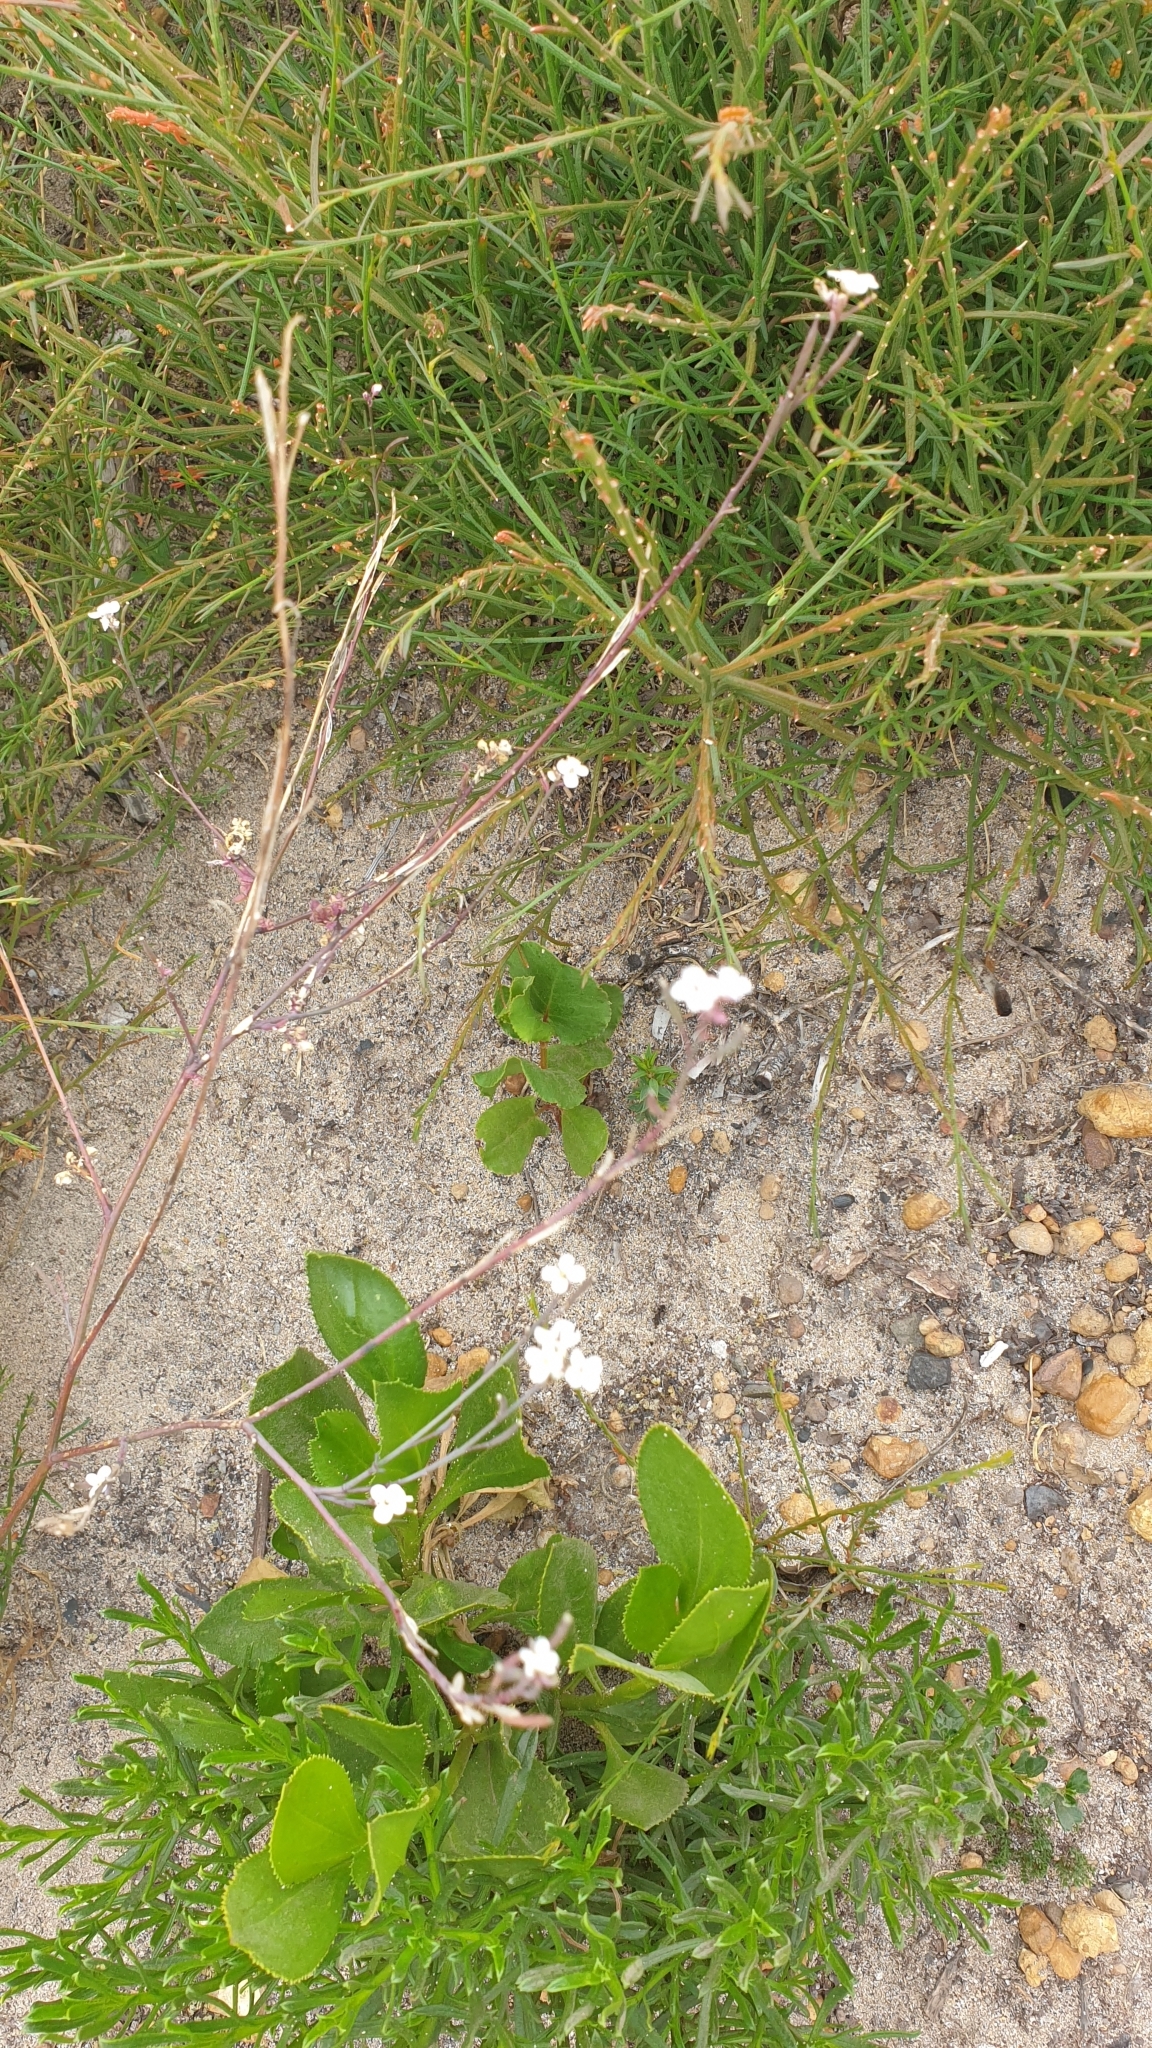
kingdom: Plantae
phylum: Tracheophyta
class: Magnoliopsida
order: Brassicales
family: Brassicaceae
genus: Irenepharsus
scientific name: Irenepharsus phasmatodes
